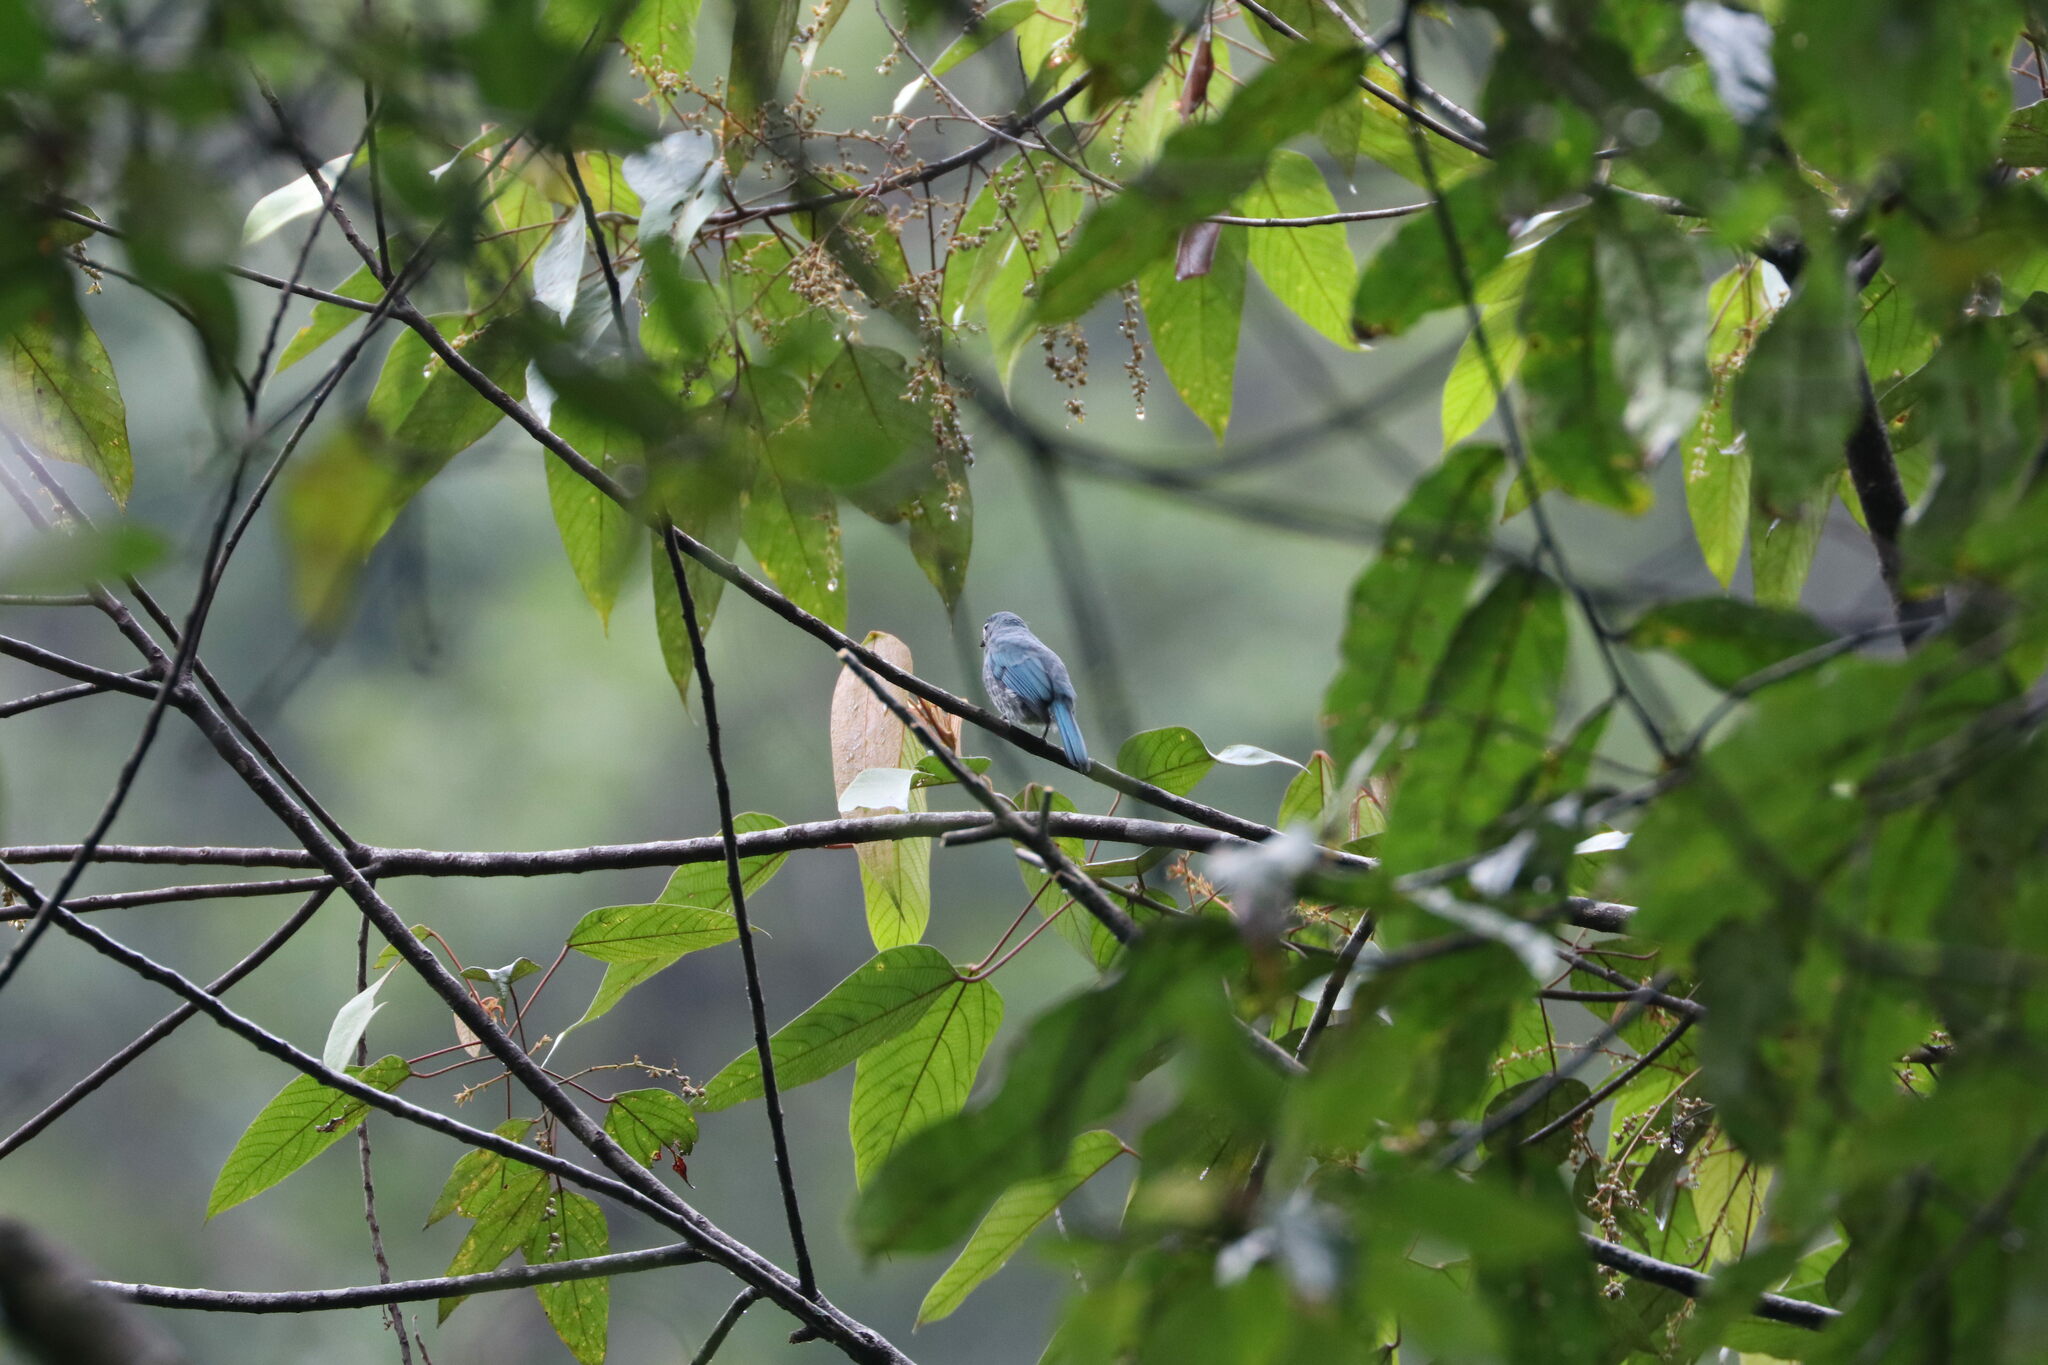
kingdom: Animalia
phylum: Chordata
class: Aves
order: Passeriformes
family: Muscicapidae
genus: Cyornis
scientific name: Cyornis unicolor
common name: Pale blue flycatcher
